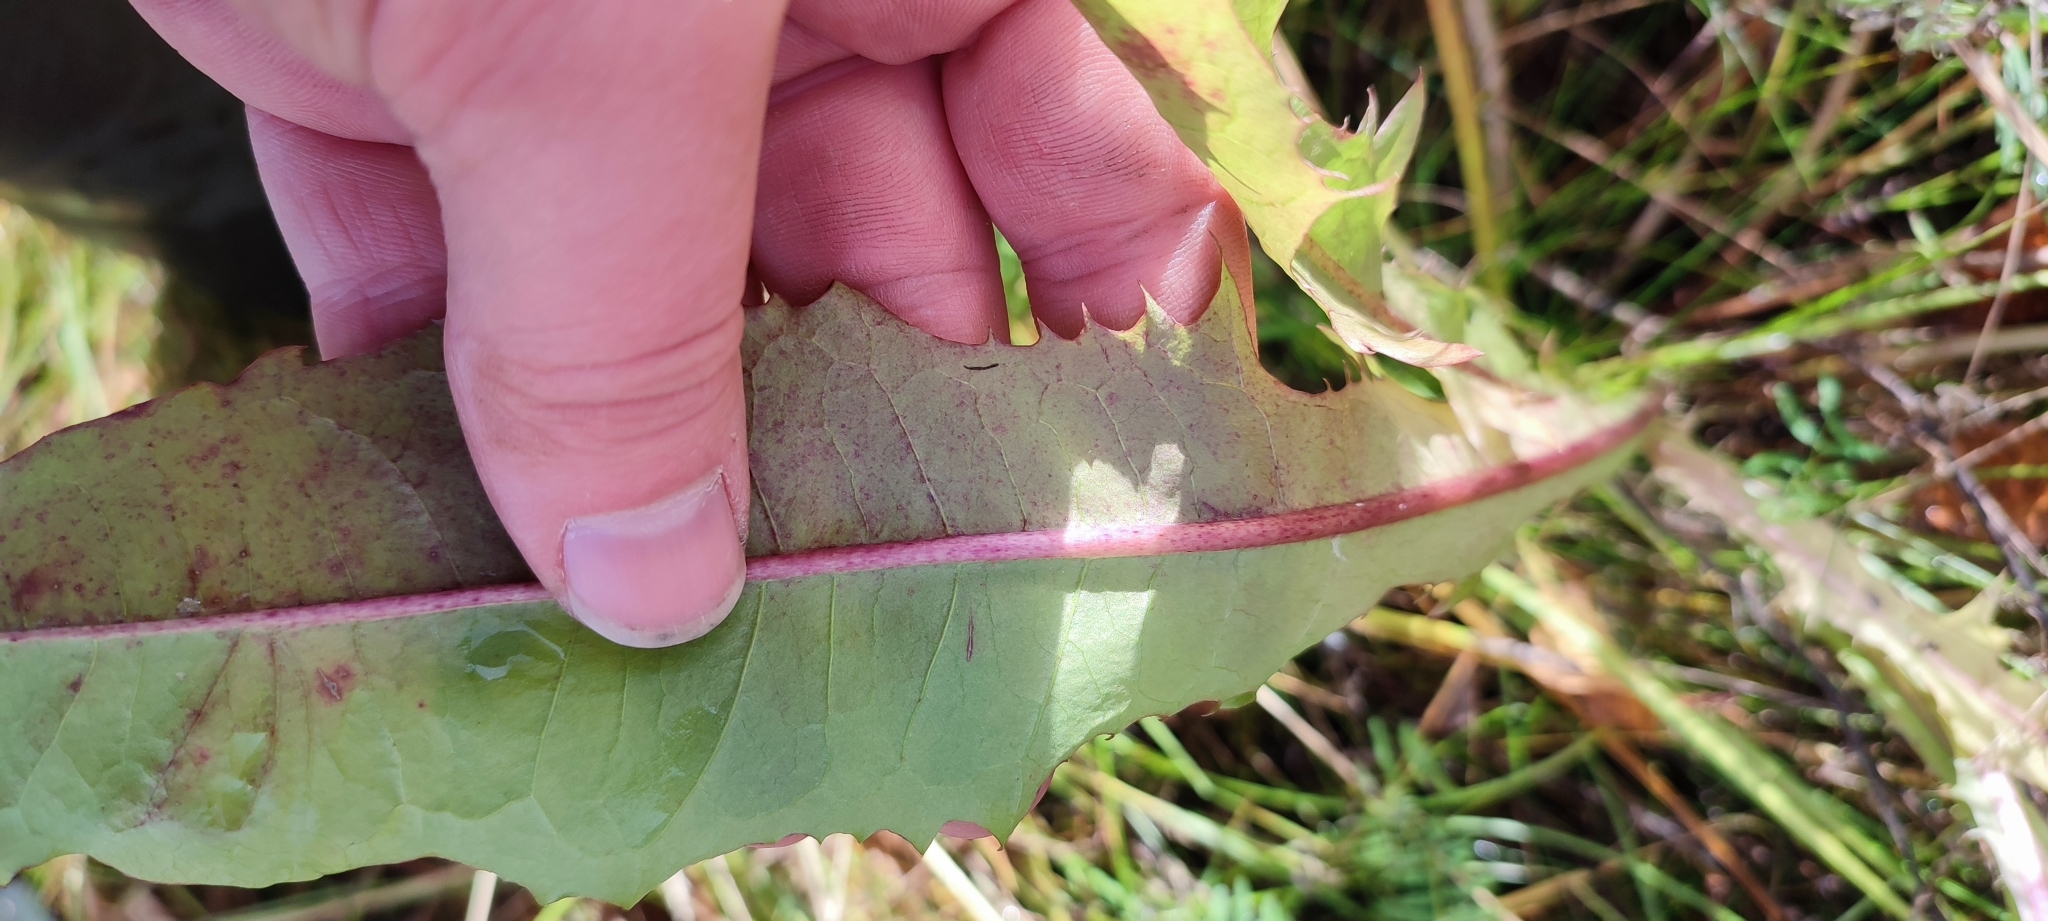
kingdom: Plantae
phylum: Tracheophyta
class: Magnoliopsida
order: Asterales
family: Asteraceae
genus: Taraxacum
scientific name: Taraxacum ceratophorum
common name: Horn-bearing dandelion
